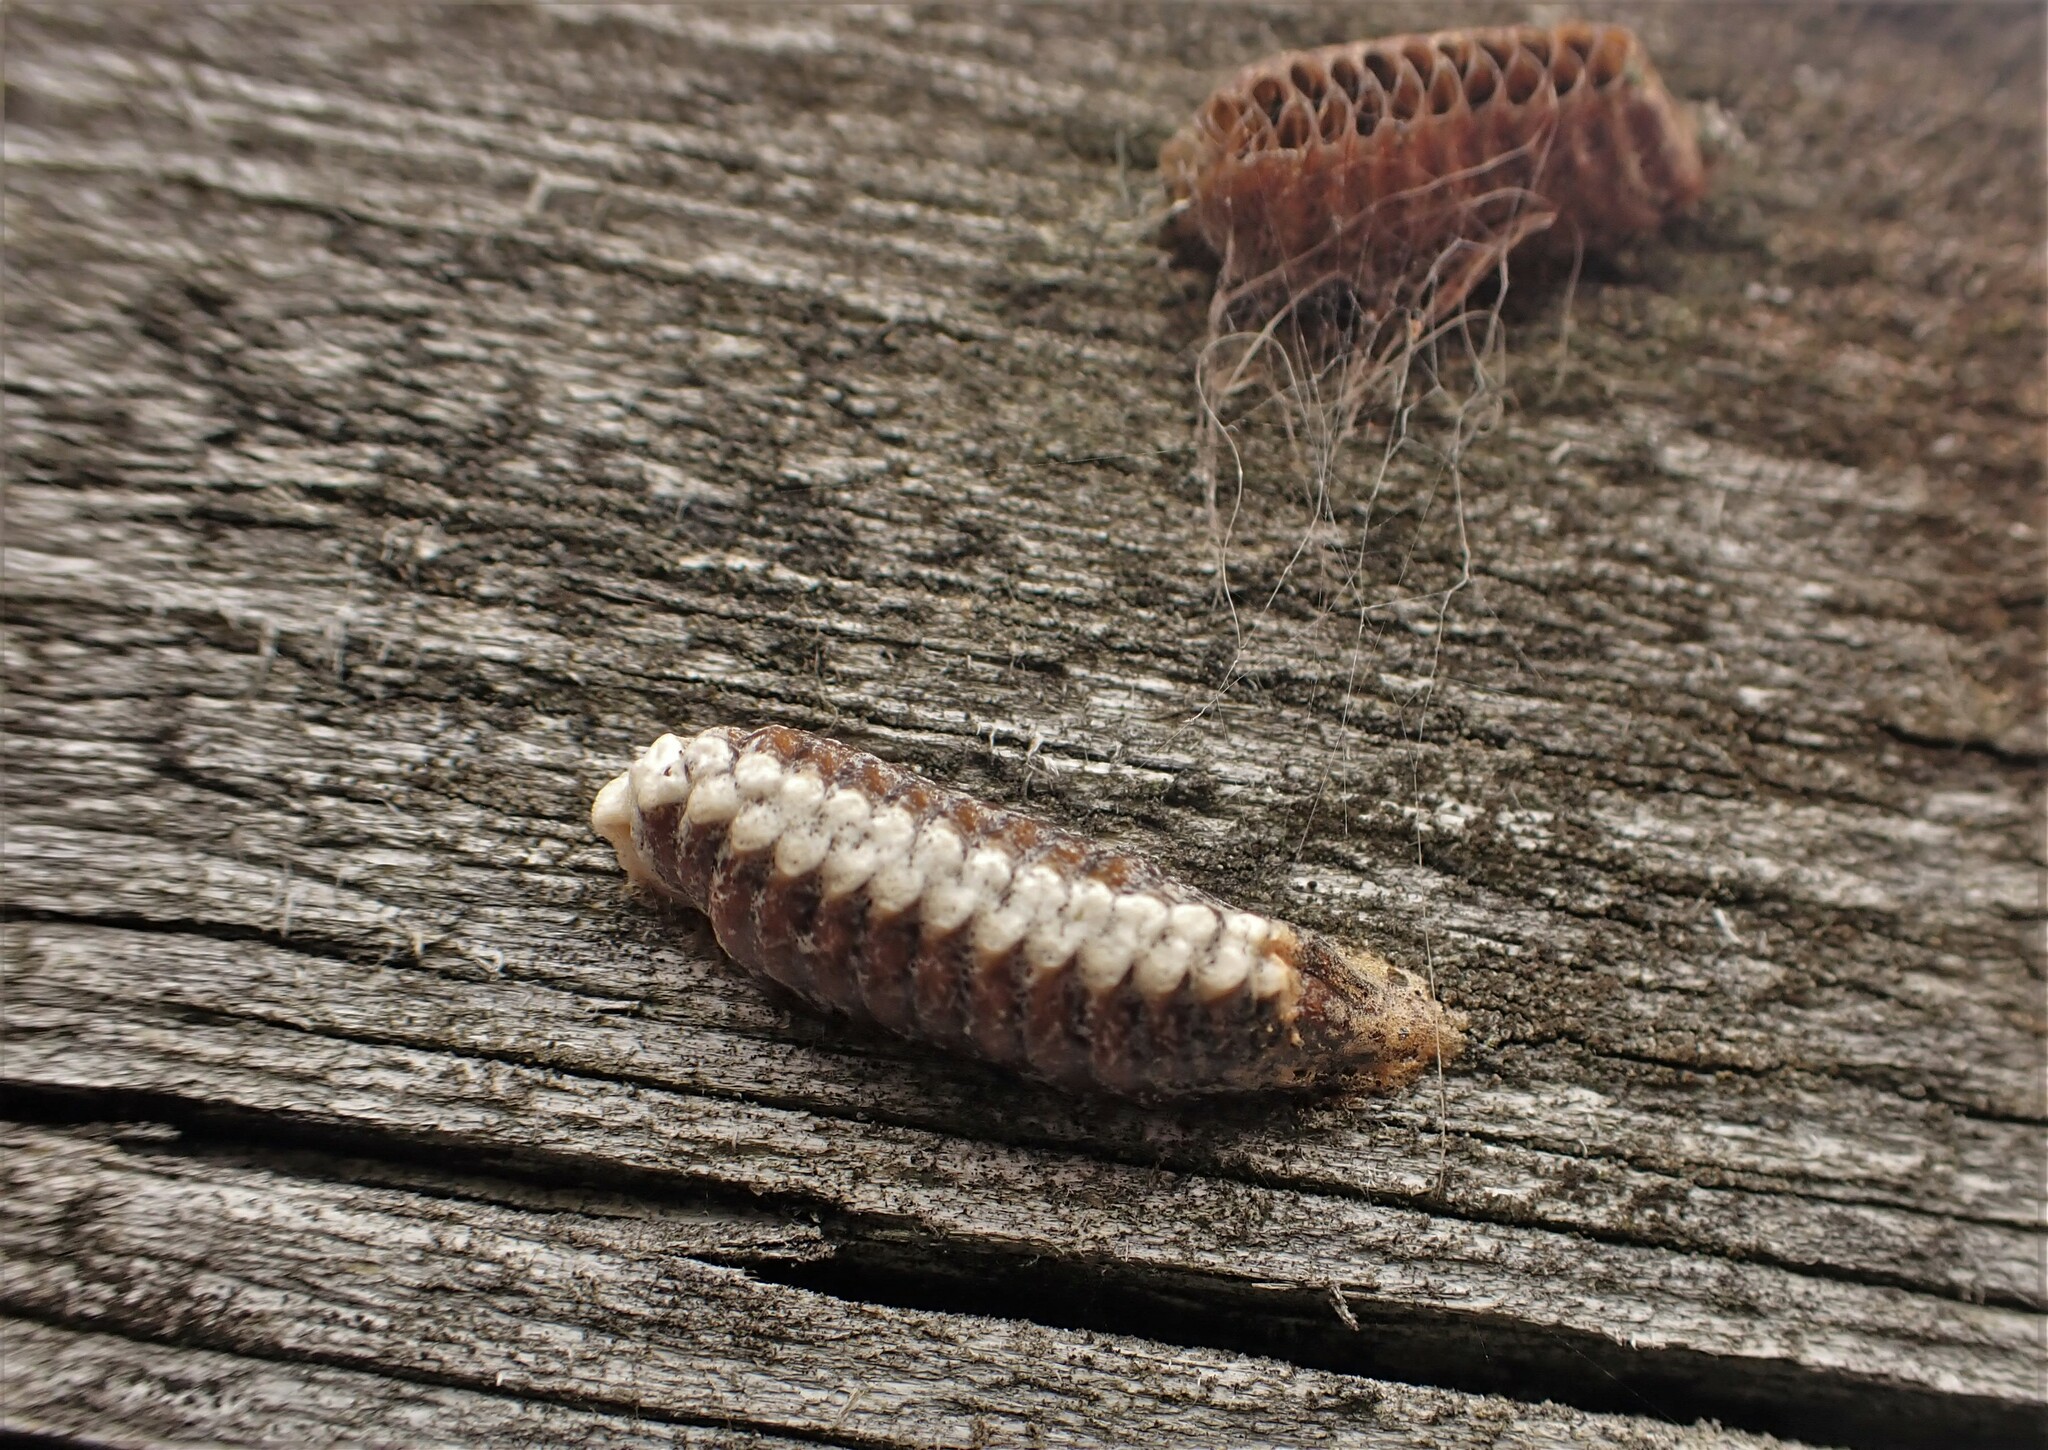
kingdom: Animalia
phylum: Arthropoda
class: Insecta
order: Mantodea
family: Mantidae
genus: Orthodera
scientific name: Orthodera novaezealandiae
